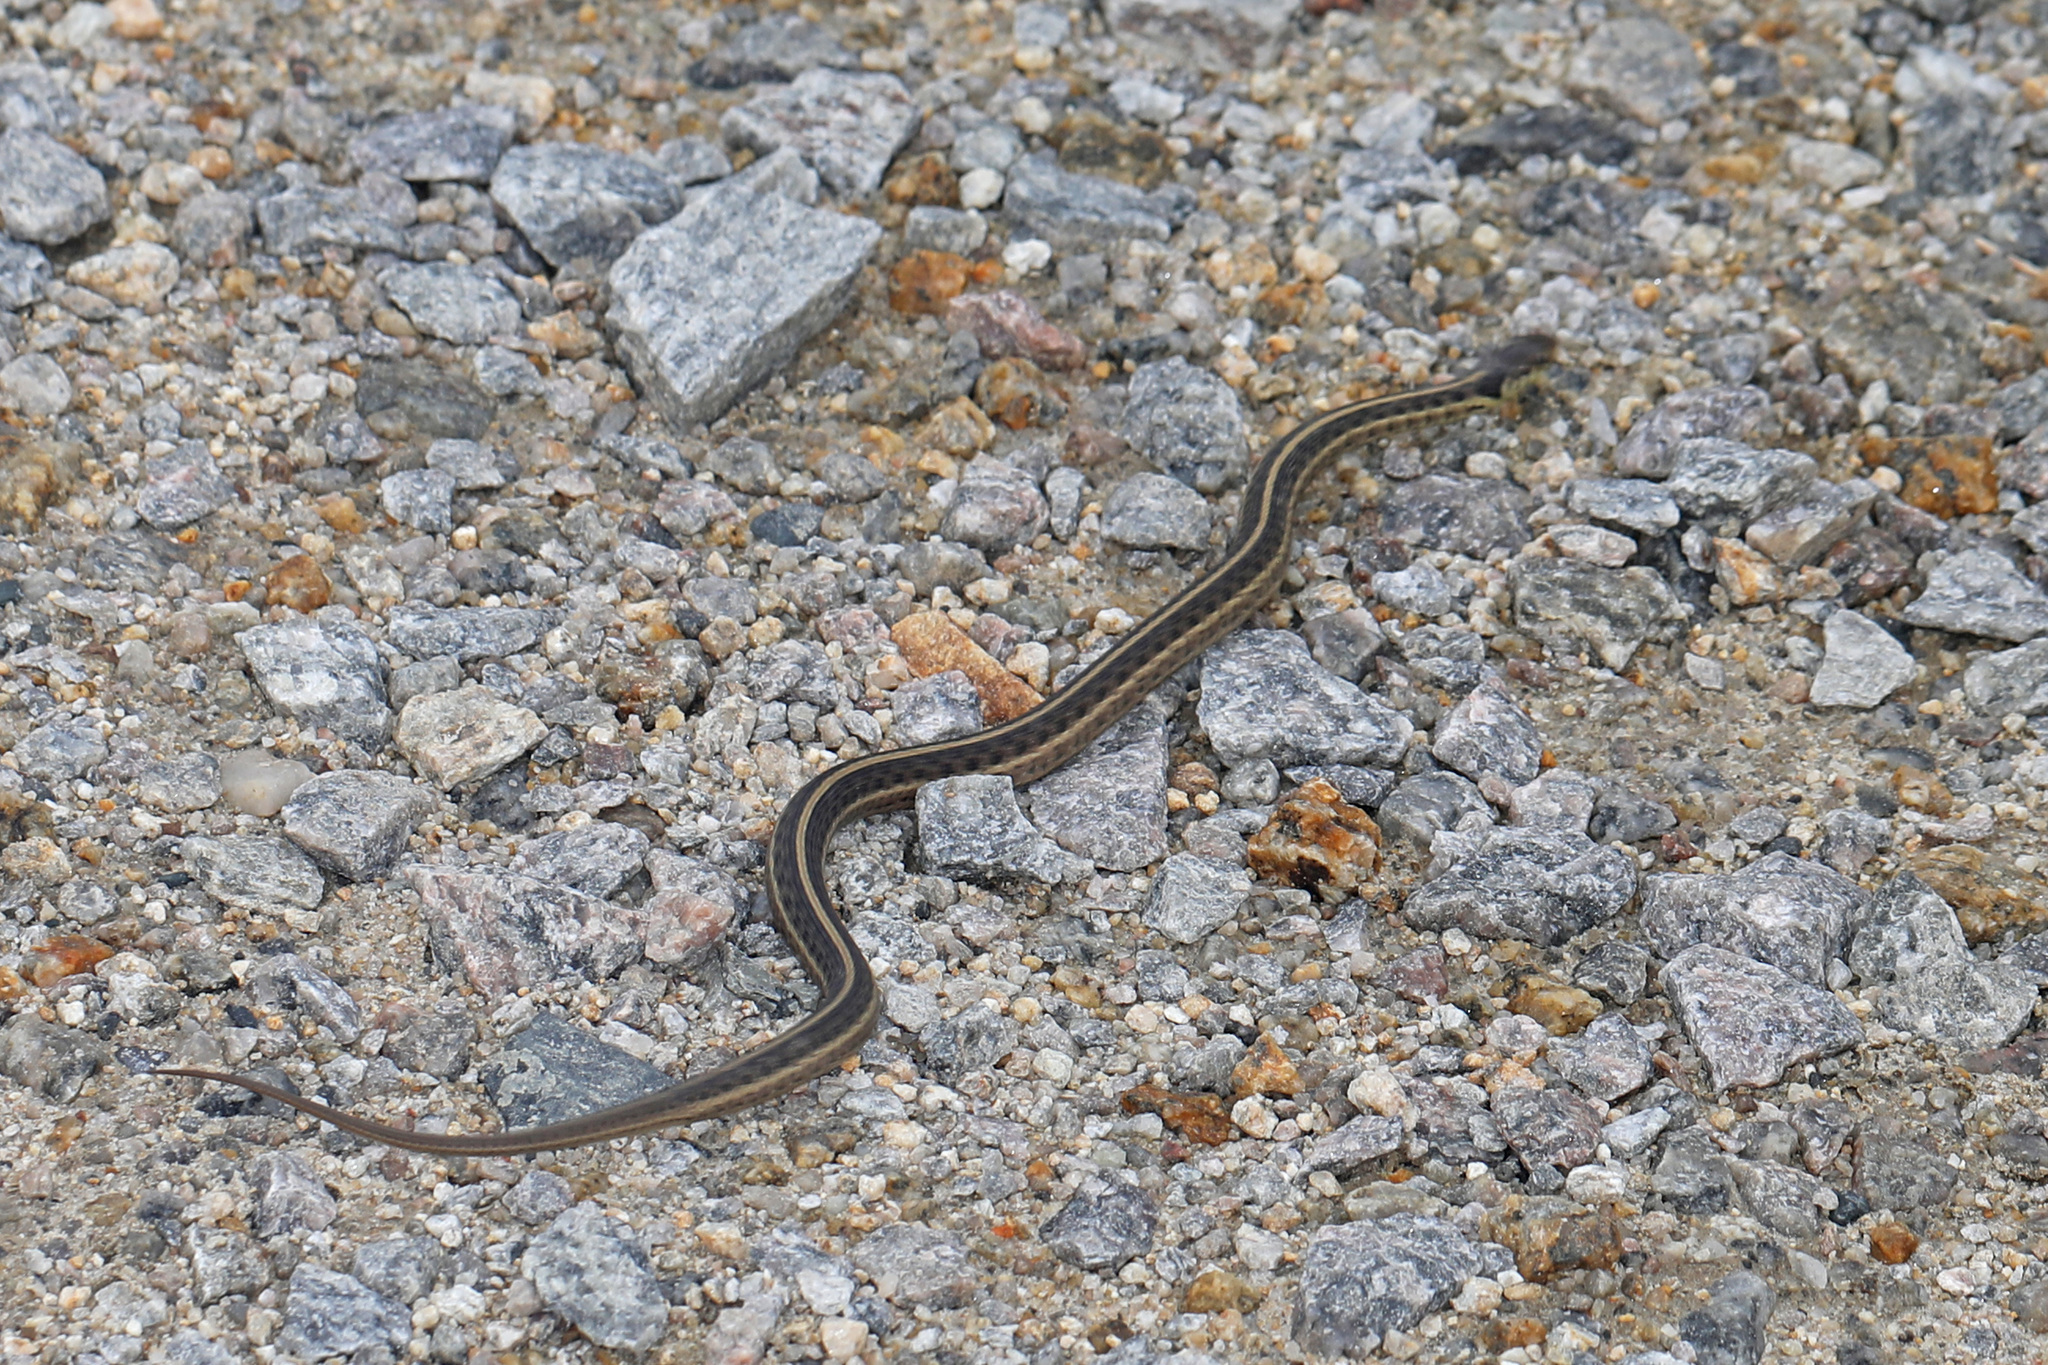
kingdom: Animalia
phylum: Chordata
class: Squamata
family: Colubridae
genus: Thamnophis
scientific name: Thamnophis sirtalis
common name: Common garter snake
